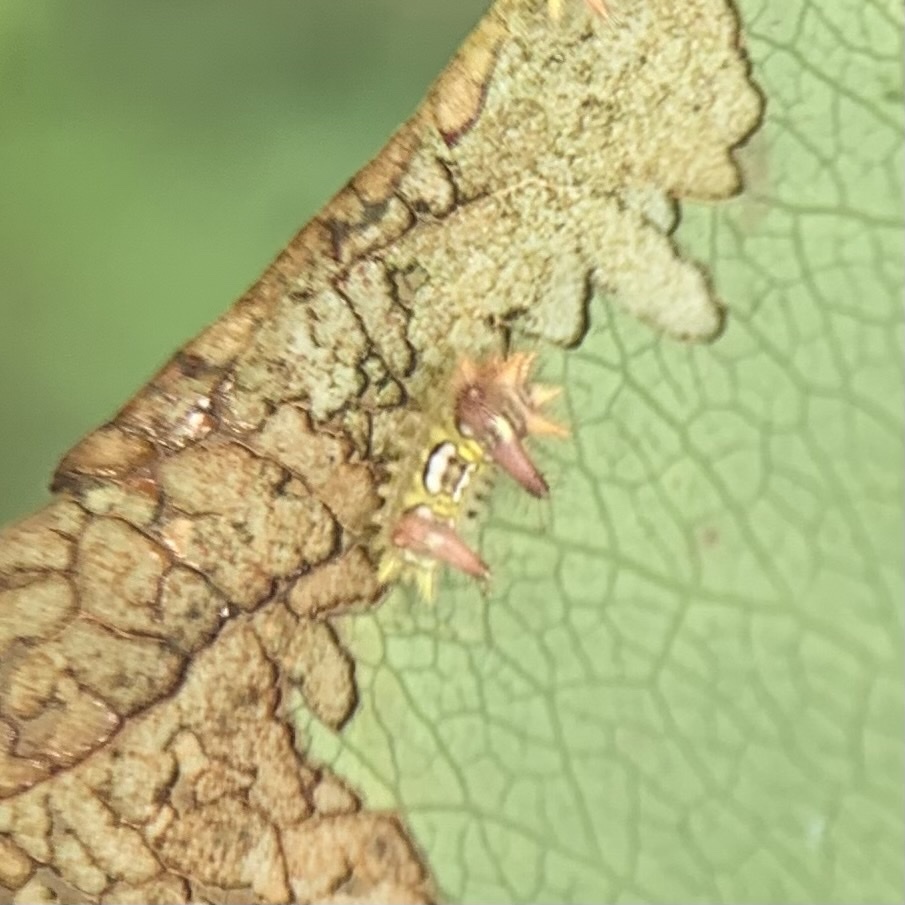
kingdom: Animalia
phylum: Arthropoda
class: Insecta
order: Lepidoptera
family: Limacodidae
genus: Acharia
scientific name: Acharia stimulea
